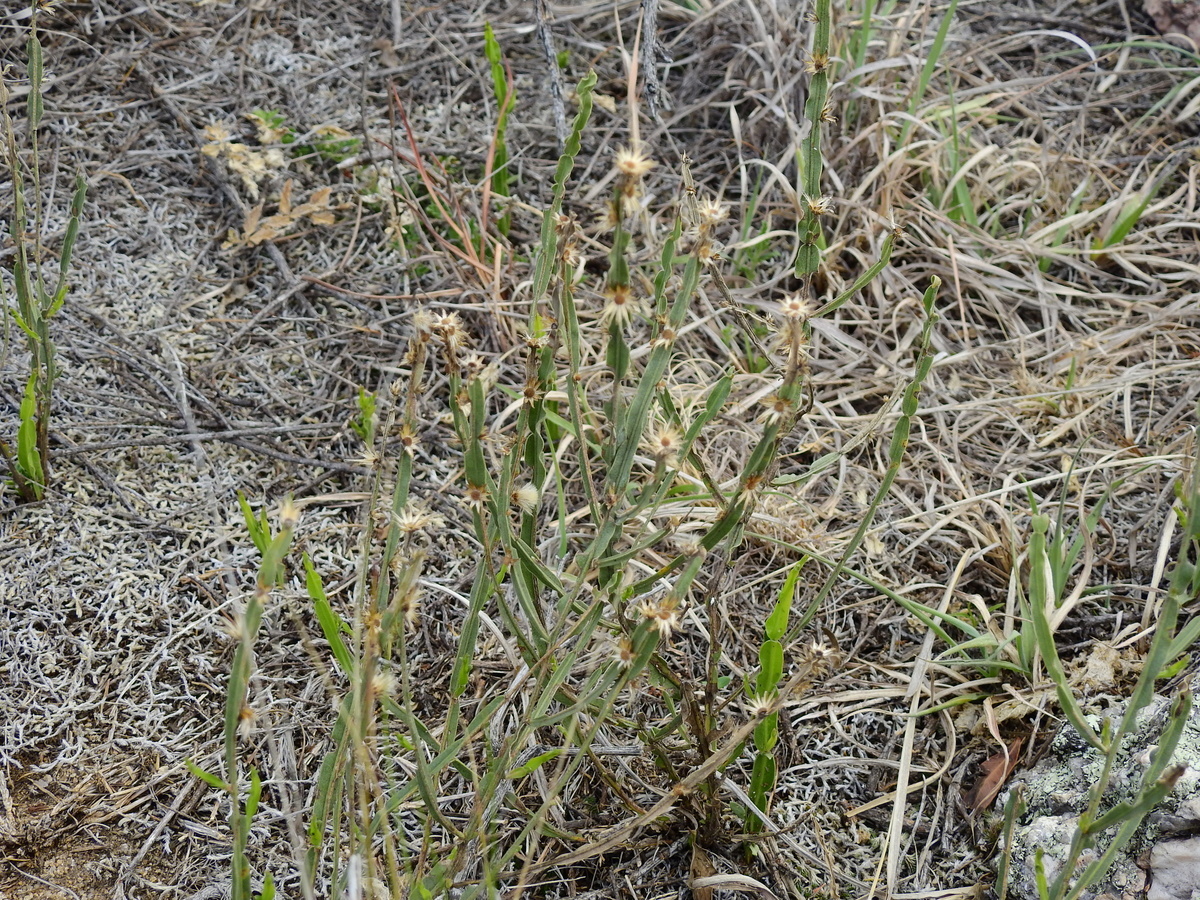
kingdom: Plantae
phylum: Tracheophyta
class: Magnoliopsida
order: Asterales
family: Asteraceae
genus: Baccharis
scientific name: Baccharis crispa
